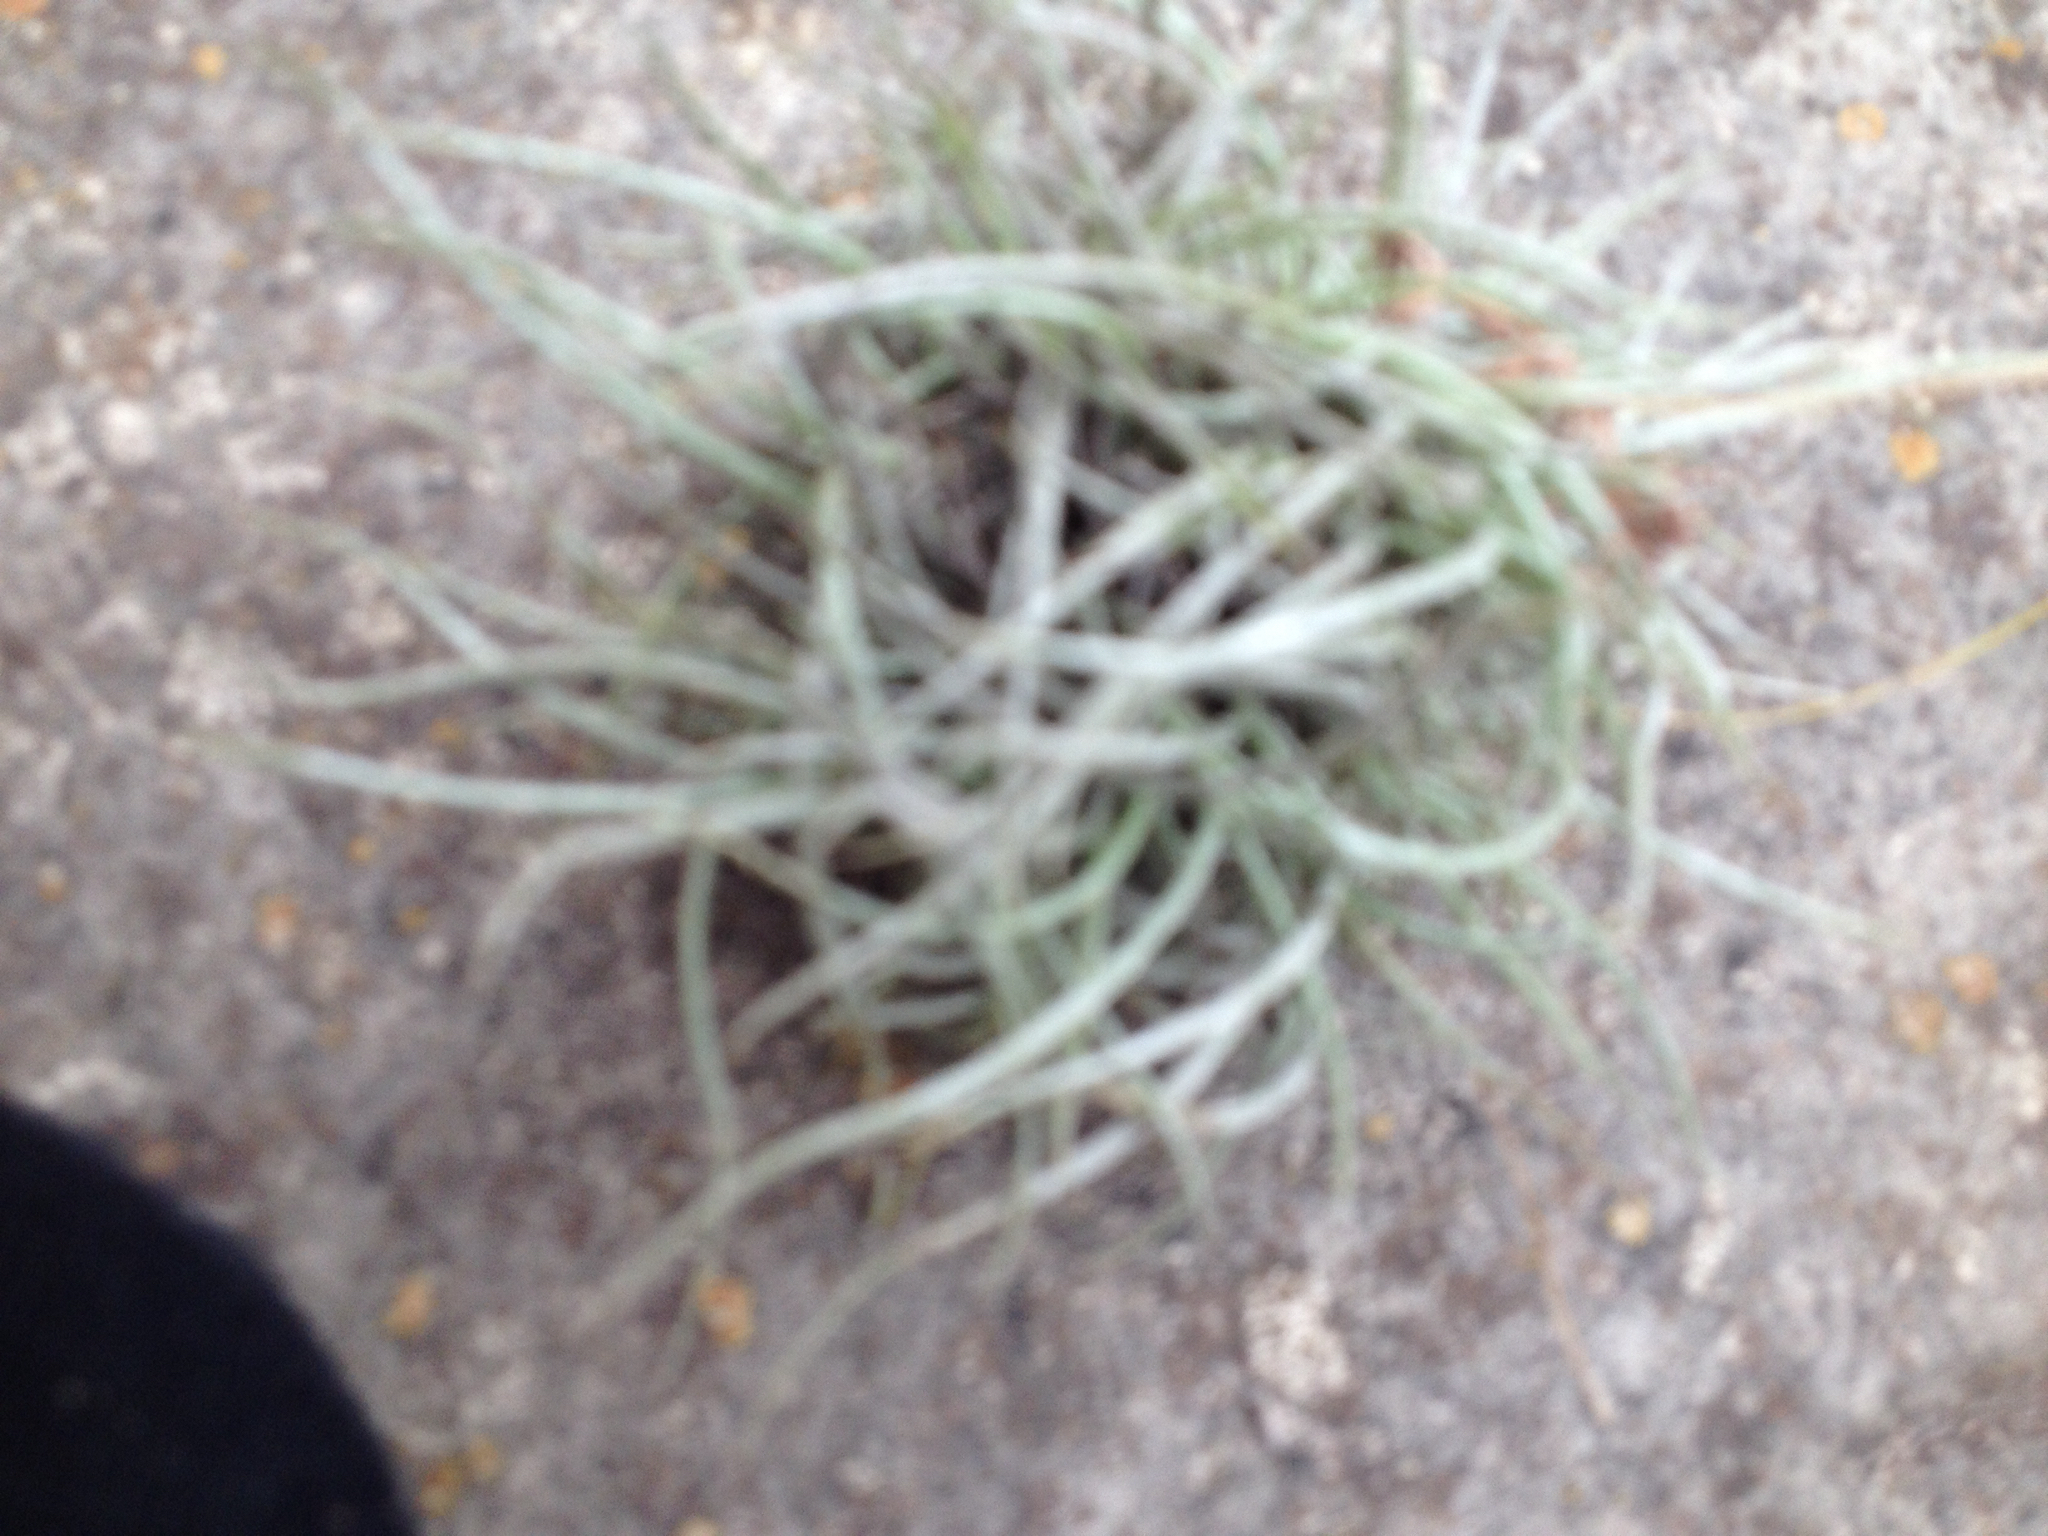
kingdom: Plantae
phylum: Tracheophyta
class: Liliopsida
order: Poales
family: Bromeliaceae
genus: Tillandsia
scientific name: Tillandsia recurvata
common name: Small ballmoss
